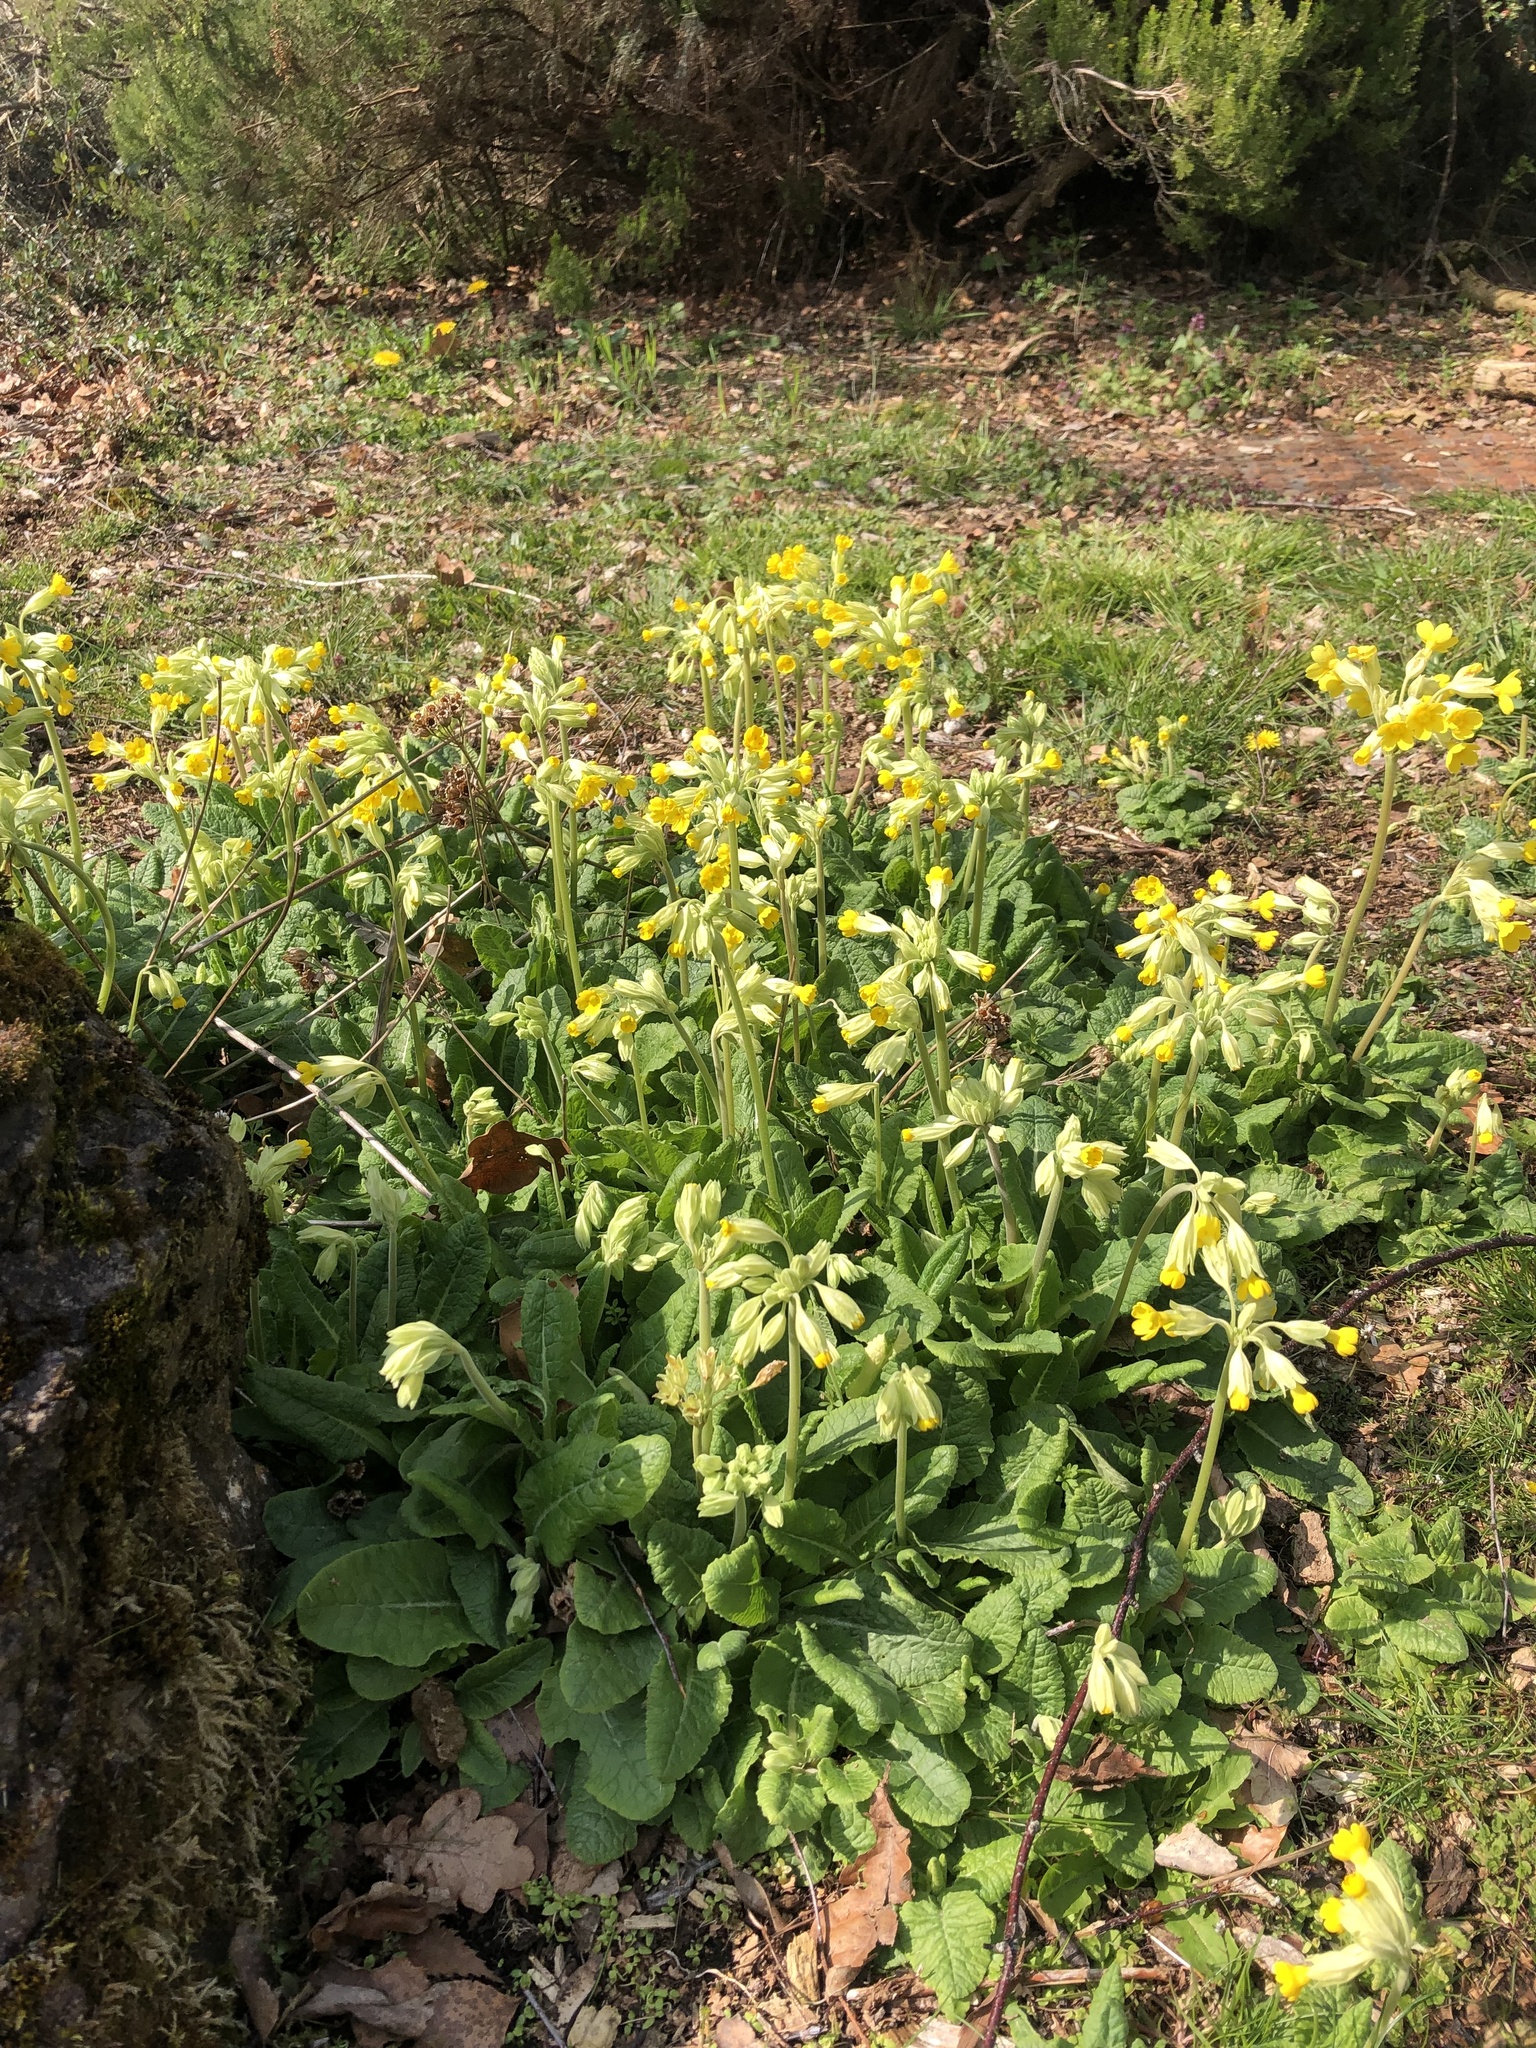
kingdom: Plantae
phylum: Tracheophyta
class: Magnoliopsida
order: Ericales
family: Primulaceae
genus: Primula
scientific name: Primula veris
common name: Cowslip
